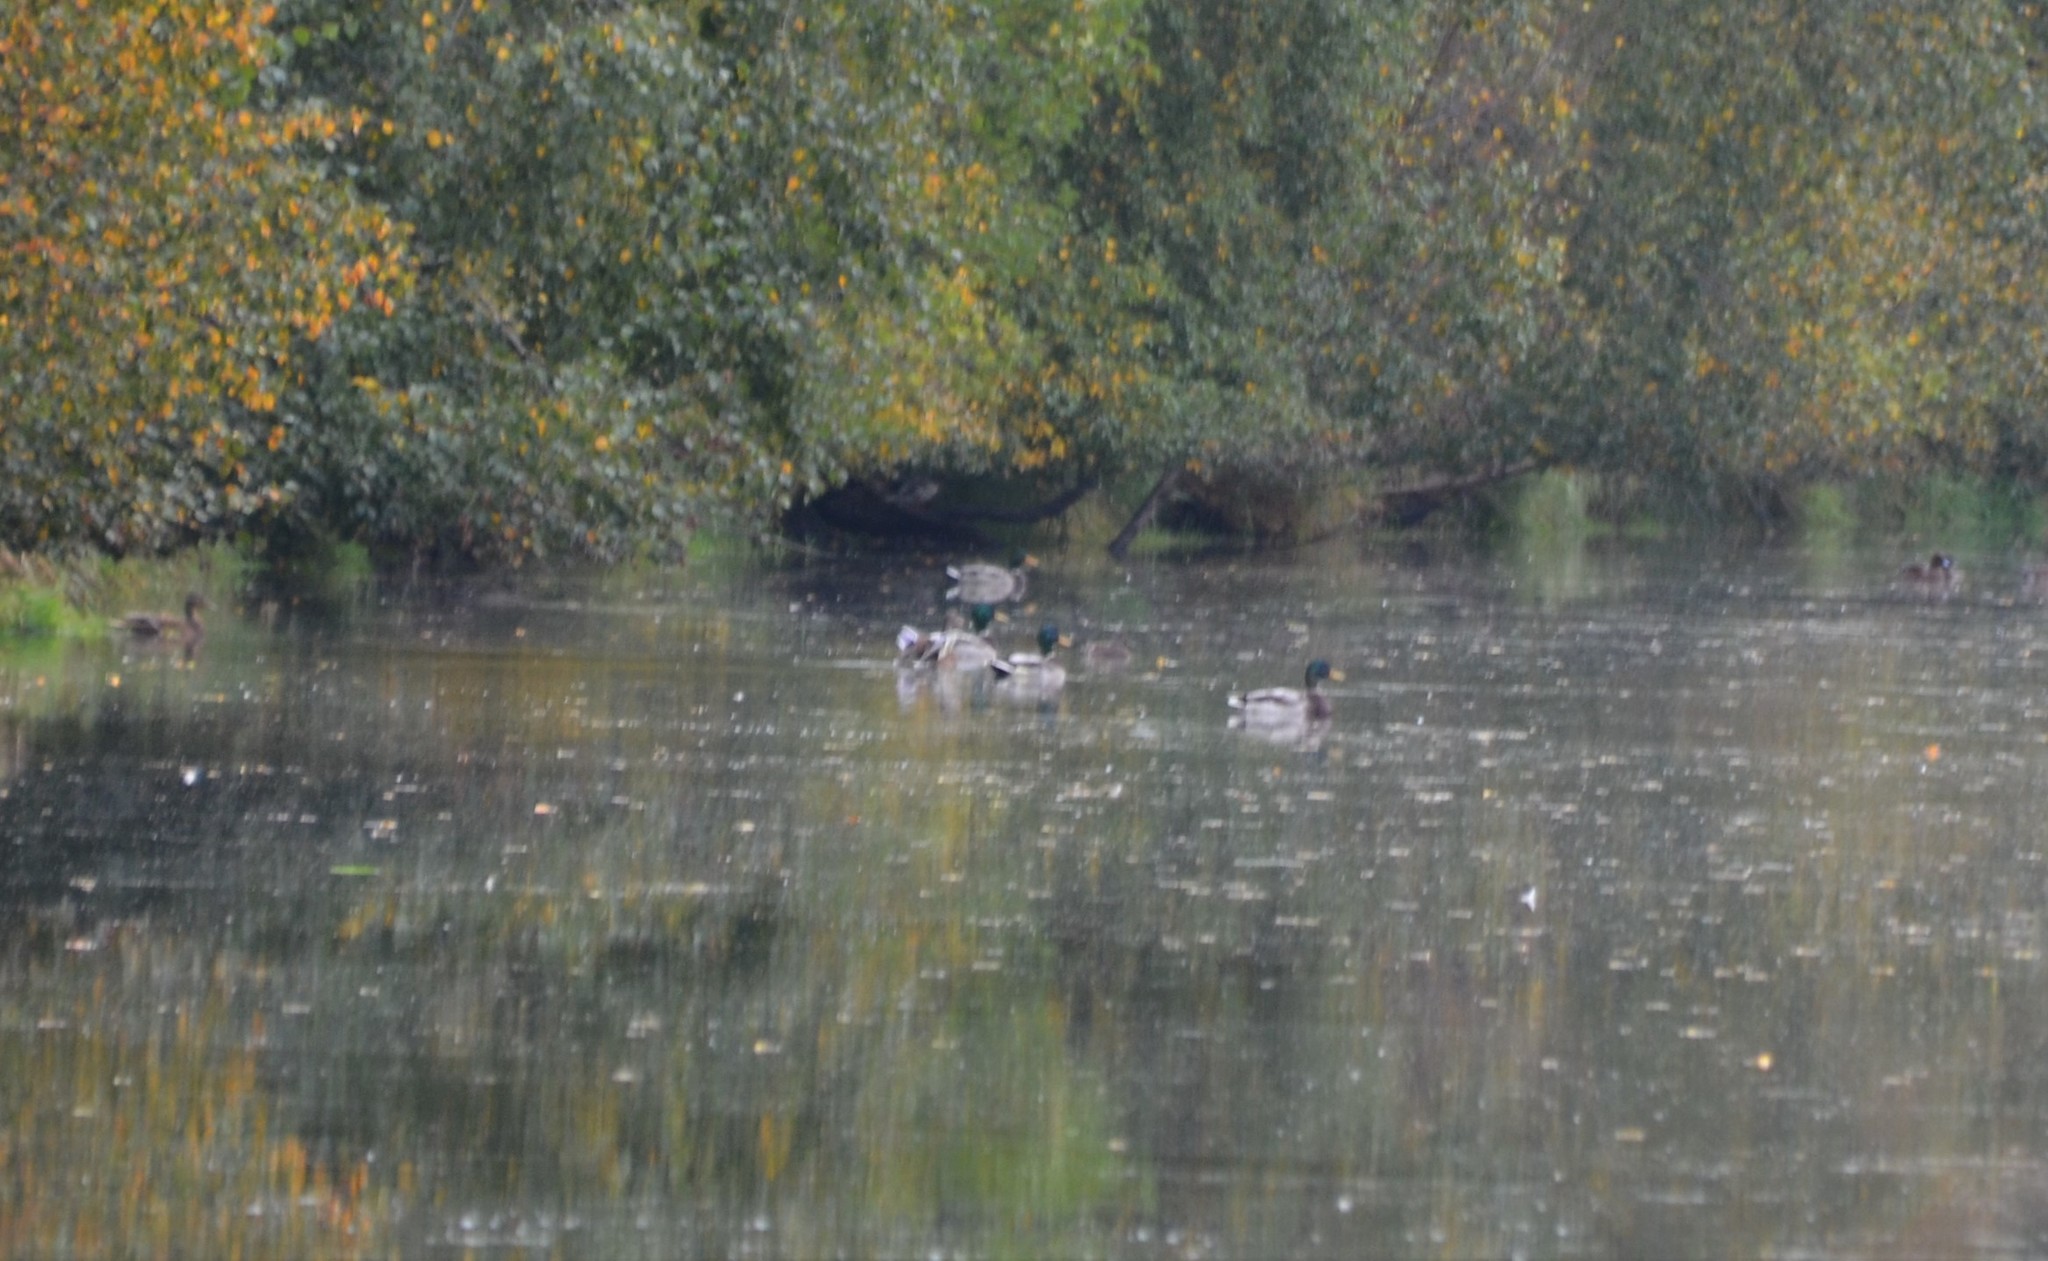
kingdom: Animalia
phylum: Chordata
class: Aves
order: Anseriformes
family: Anatidae
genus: Anas
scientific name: Anas platyrhynchos
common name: Mallard
